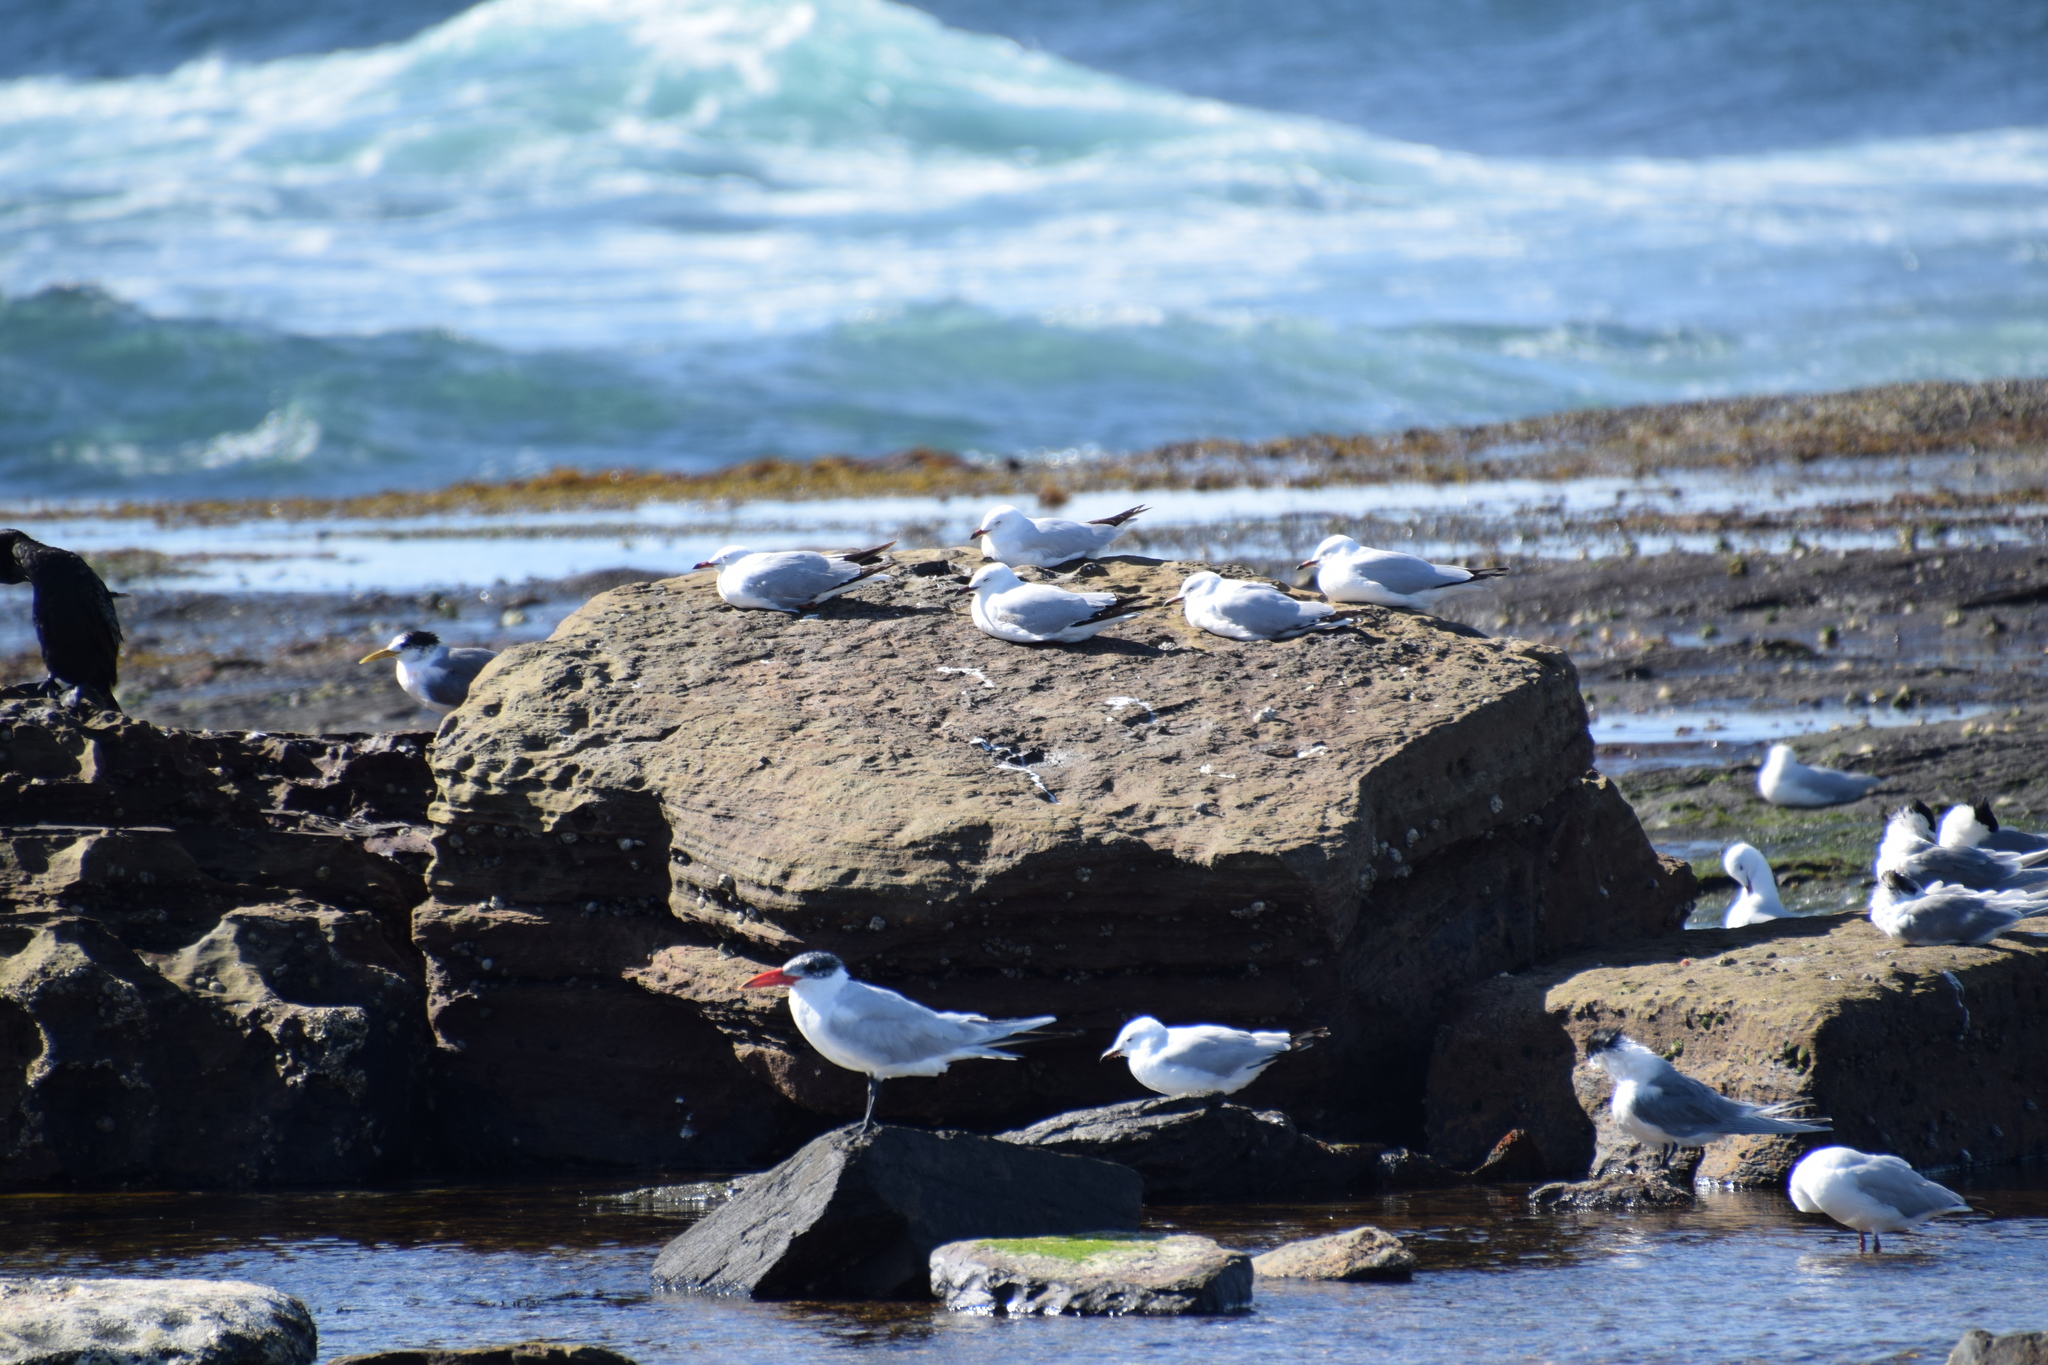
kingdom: Animalia
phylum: Chordata
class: Aves
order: Charadriiformes
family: Laridae
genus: Chroicocephalus
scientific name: Chroicocephalus novaehollandiae
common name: Silver gull
